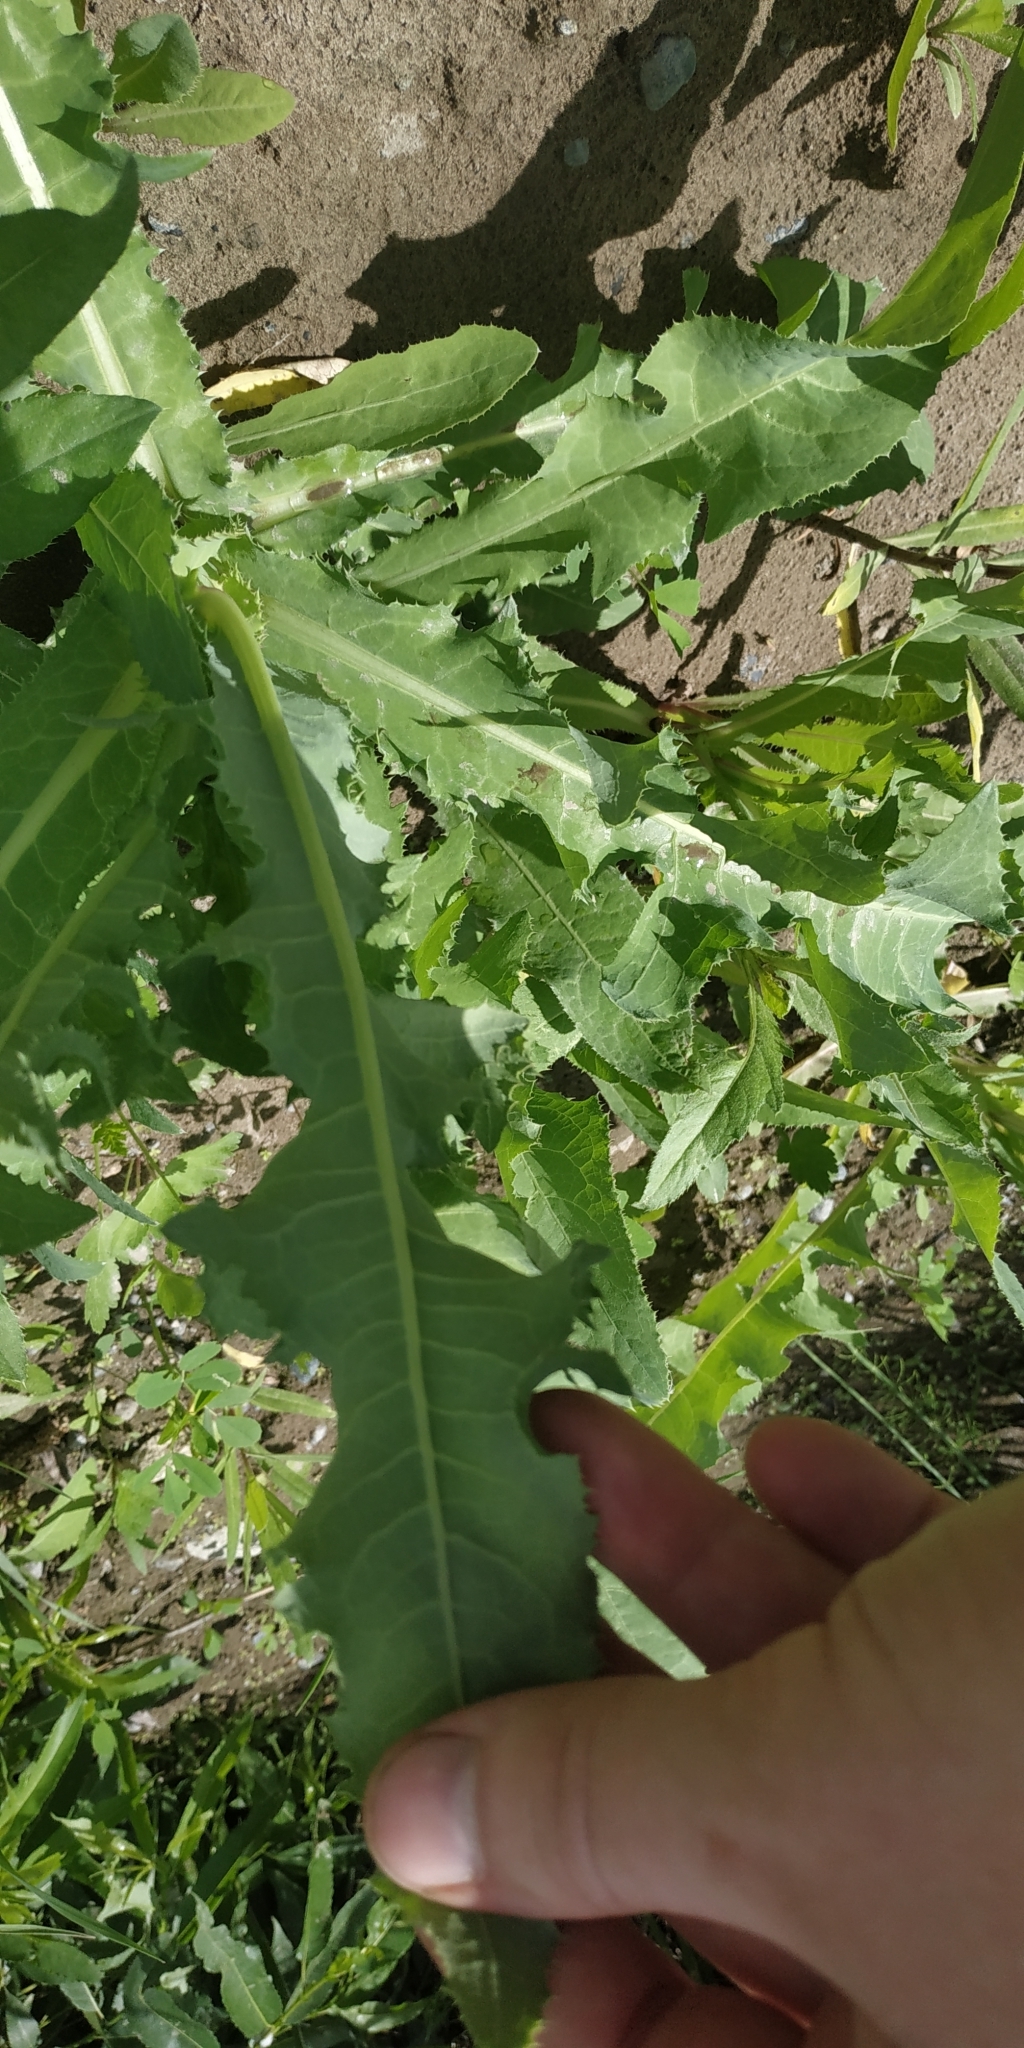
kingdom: Plantae
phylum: Tracheophyta
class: Magnoliopsida
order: Asterales
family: Asteraceae
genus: Sonchus
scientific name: Sonchus arvensis
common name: Perennial sow-thistle
